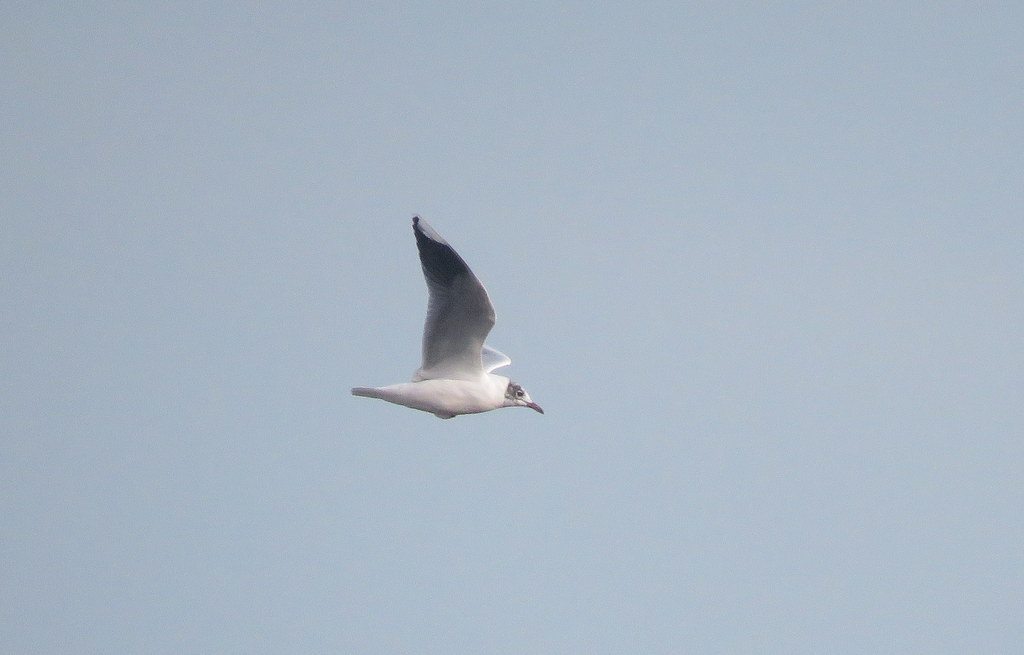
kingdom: Animalia
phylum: Chordata
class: Aves
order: Charadriiformes
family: Laridae
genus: Chroicocephalus
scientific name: Chroicocephalus maculipennis
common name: Brown-hooded gull
